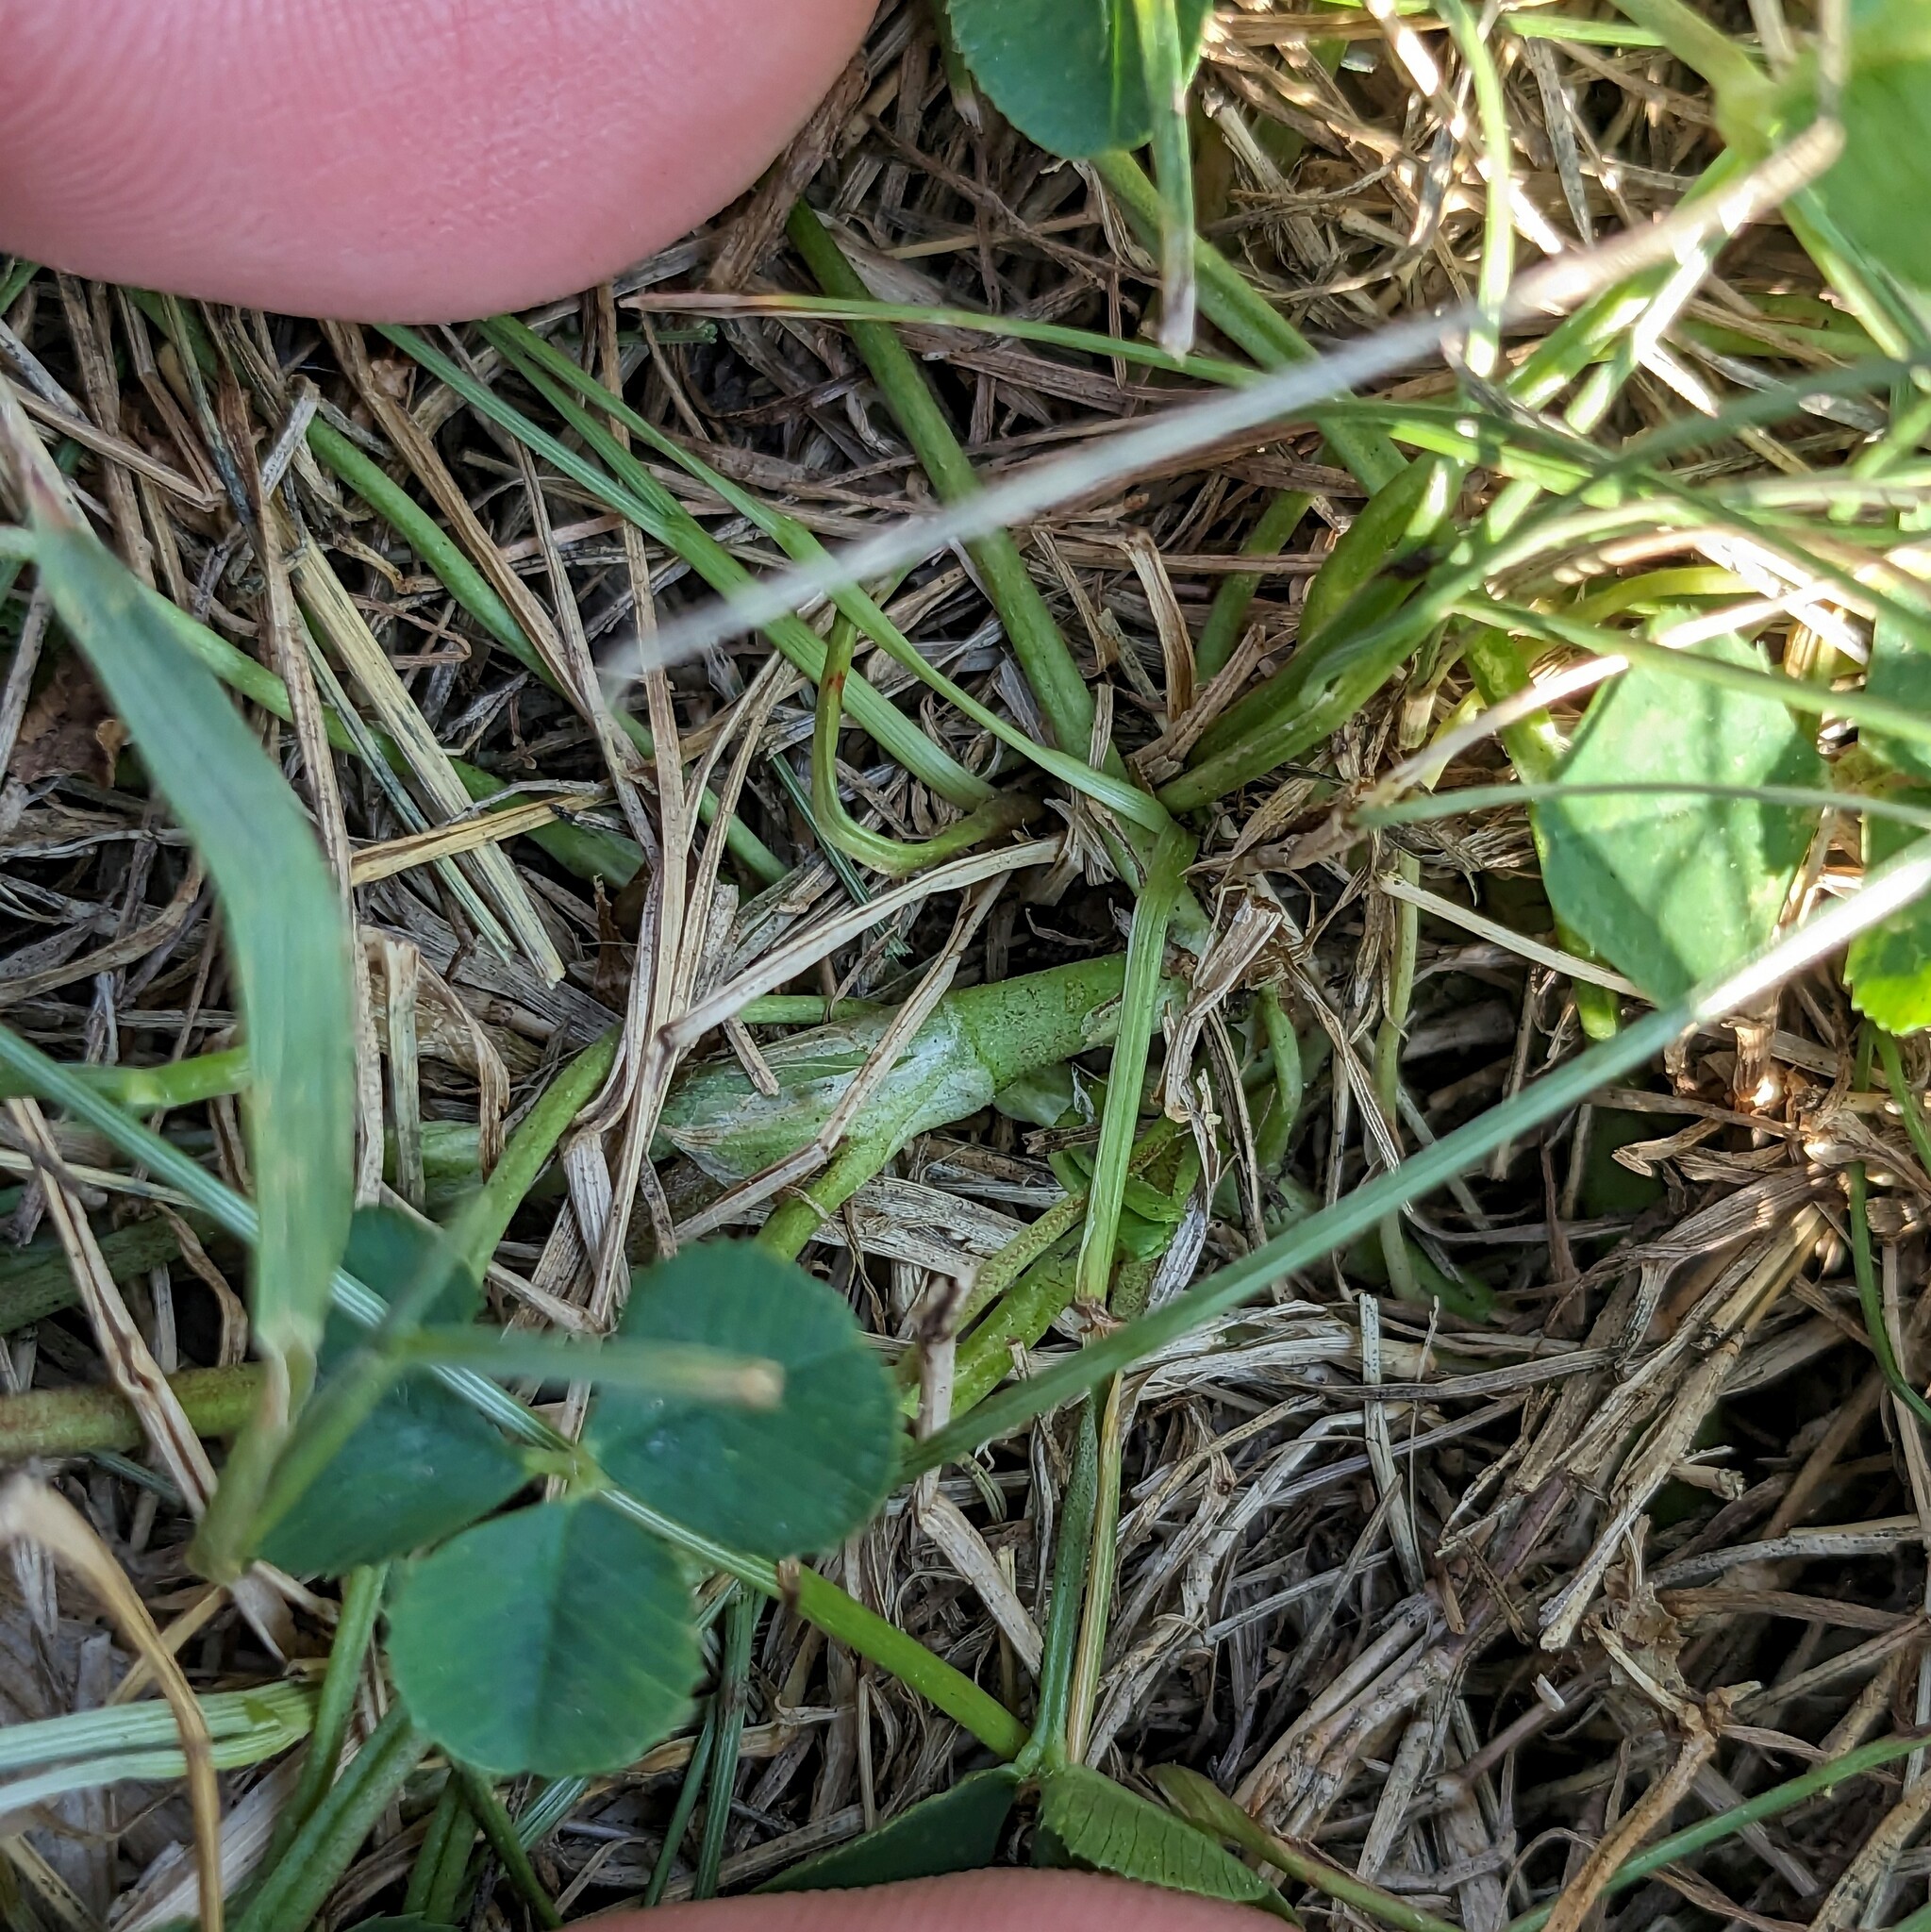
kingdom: Plantae
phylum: Tracheophyta
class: Magnoliopsida
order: Fabales
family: Fabaceae
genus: Trifolium
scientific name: Trifolium repens
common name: White clover
